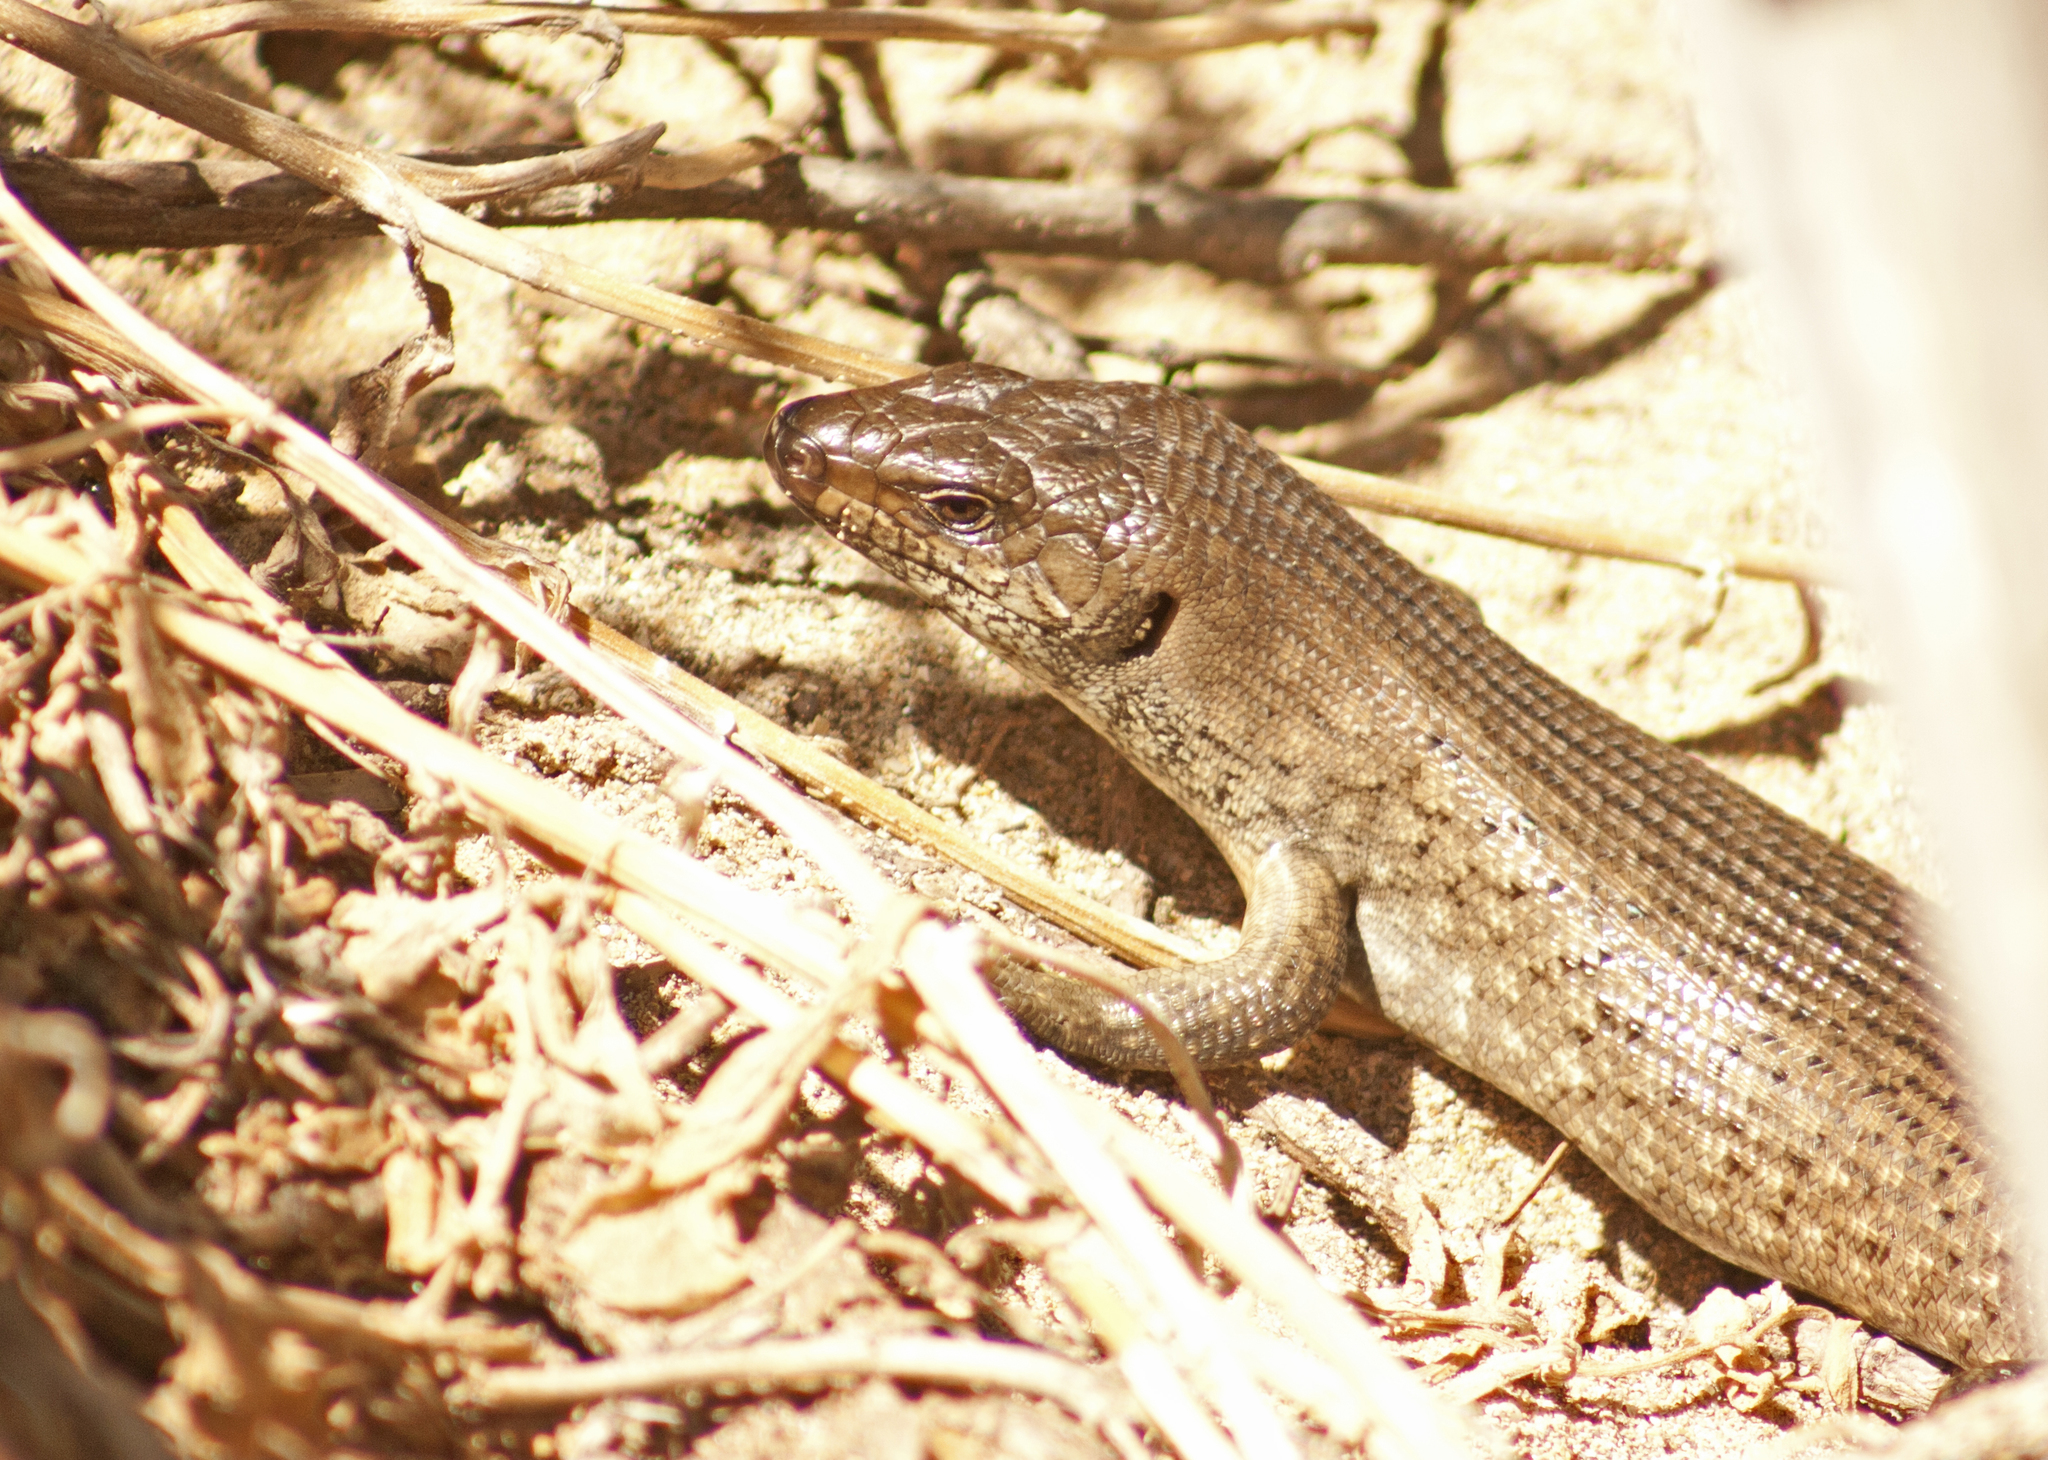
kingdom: Animalia
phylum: Chordata
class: Squamata
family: Scincidae
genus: Egernia
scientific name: Egernia kingii
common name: King's skink
